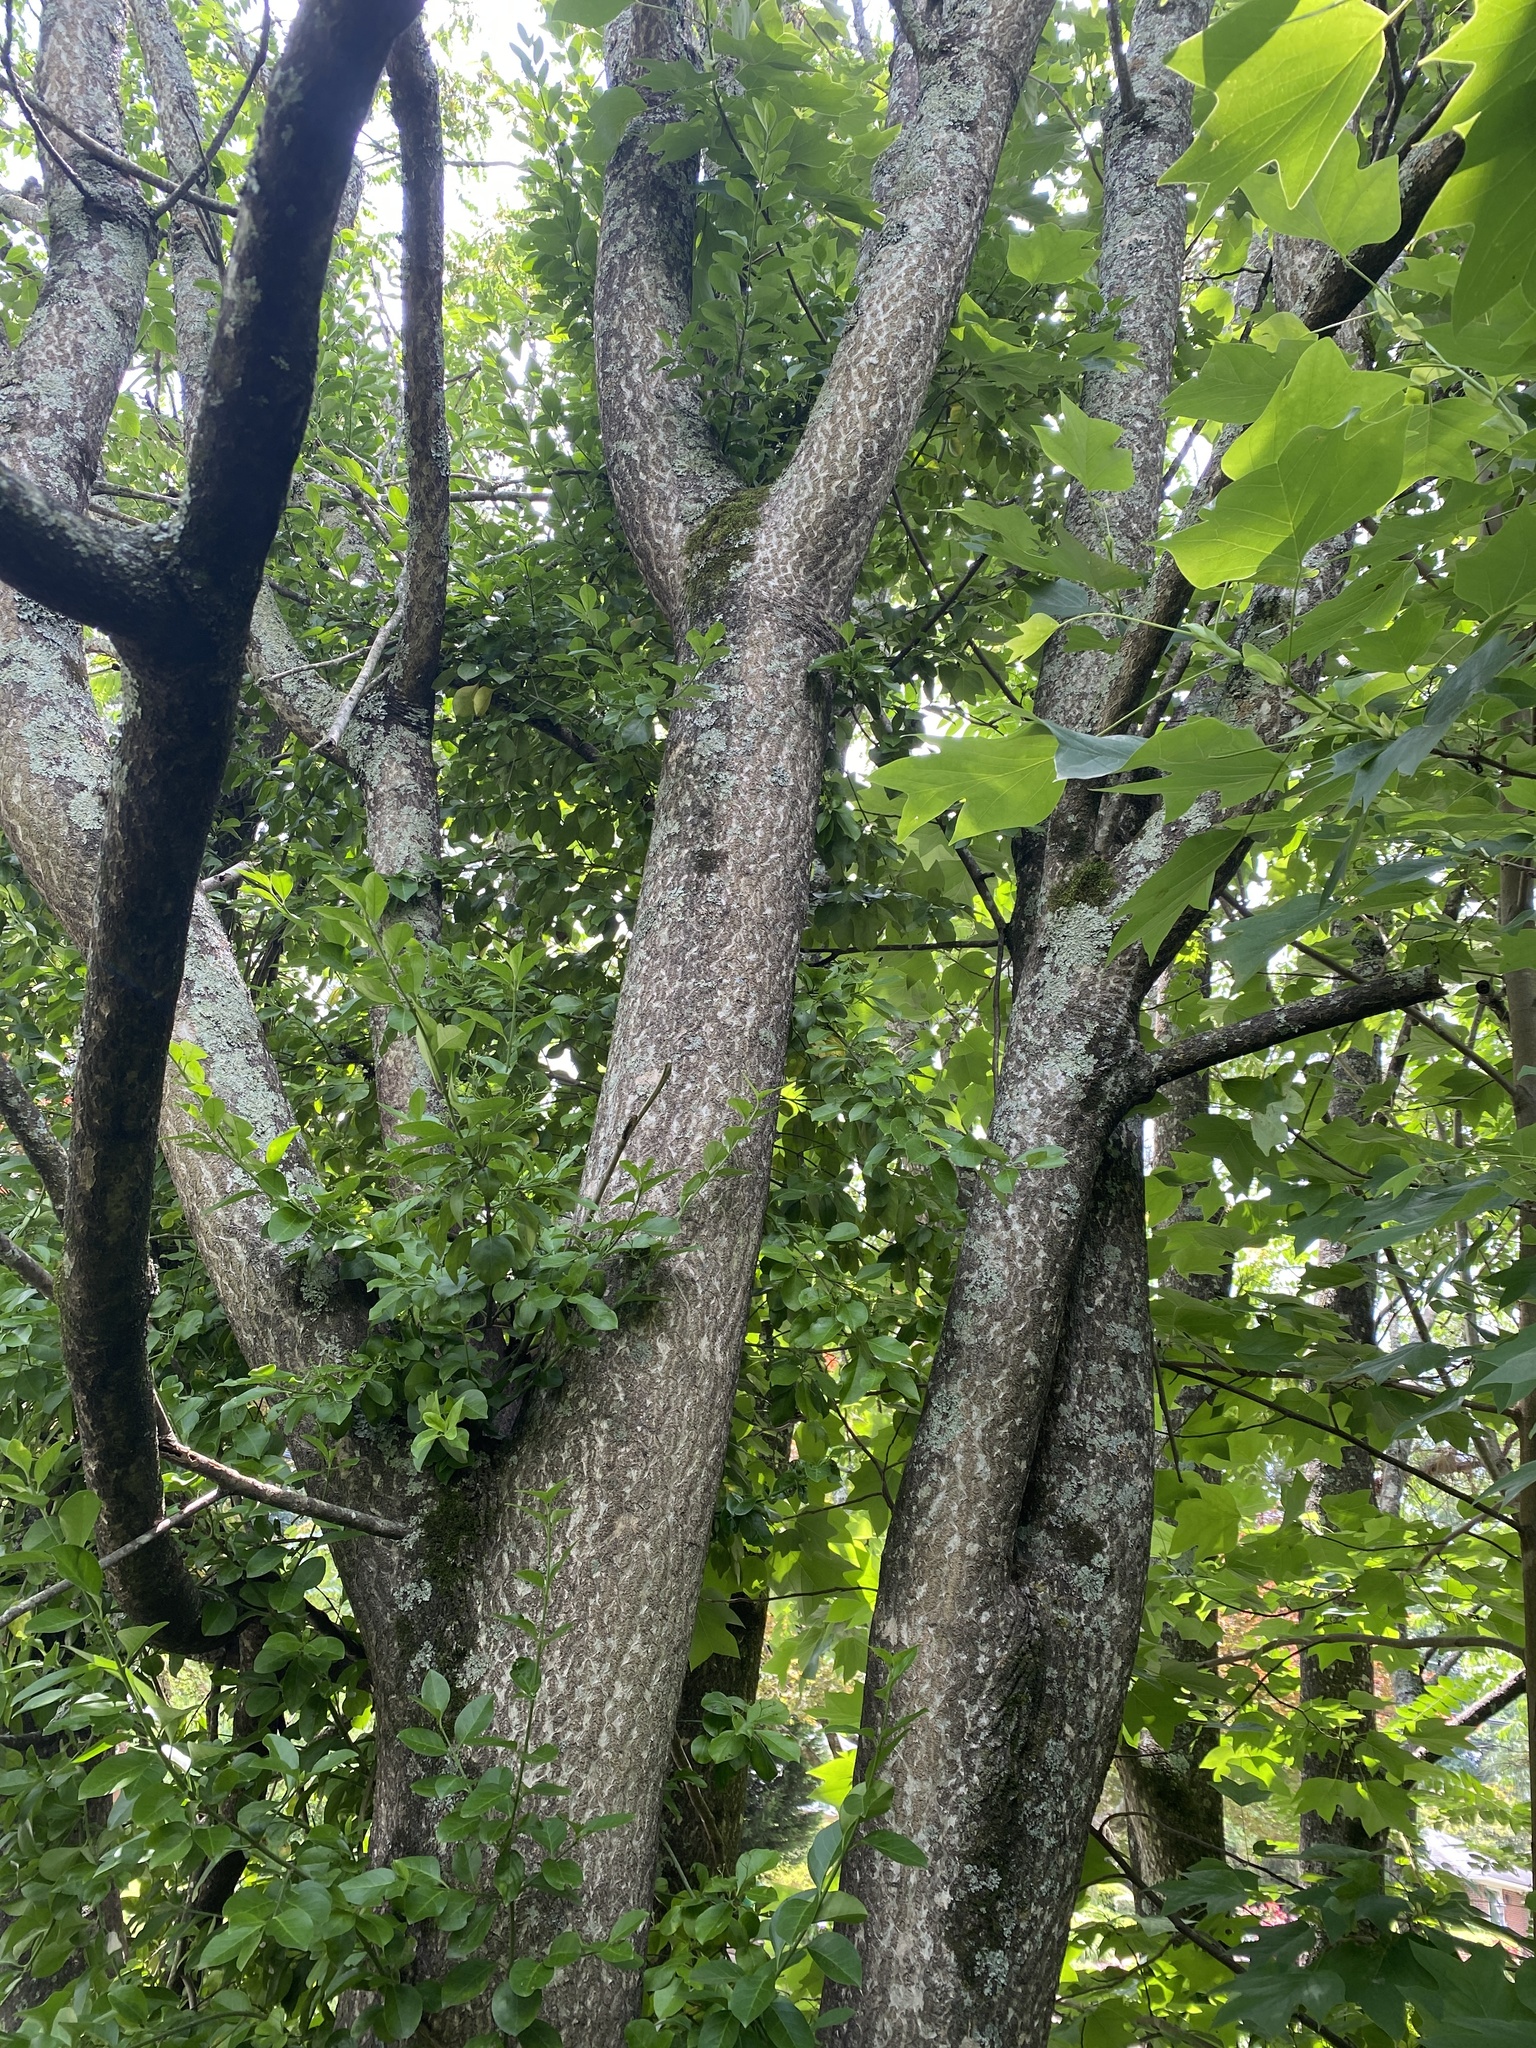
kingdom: Plantae
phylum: Tracheophyta
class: Magnoliopsida
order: Sapindales
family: Simaroubaceae
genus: Ailanthus
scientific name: Ailanthus altissima
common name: Tree-of-heaven
